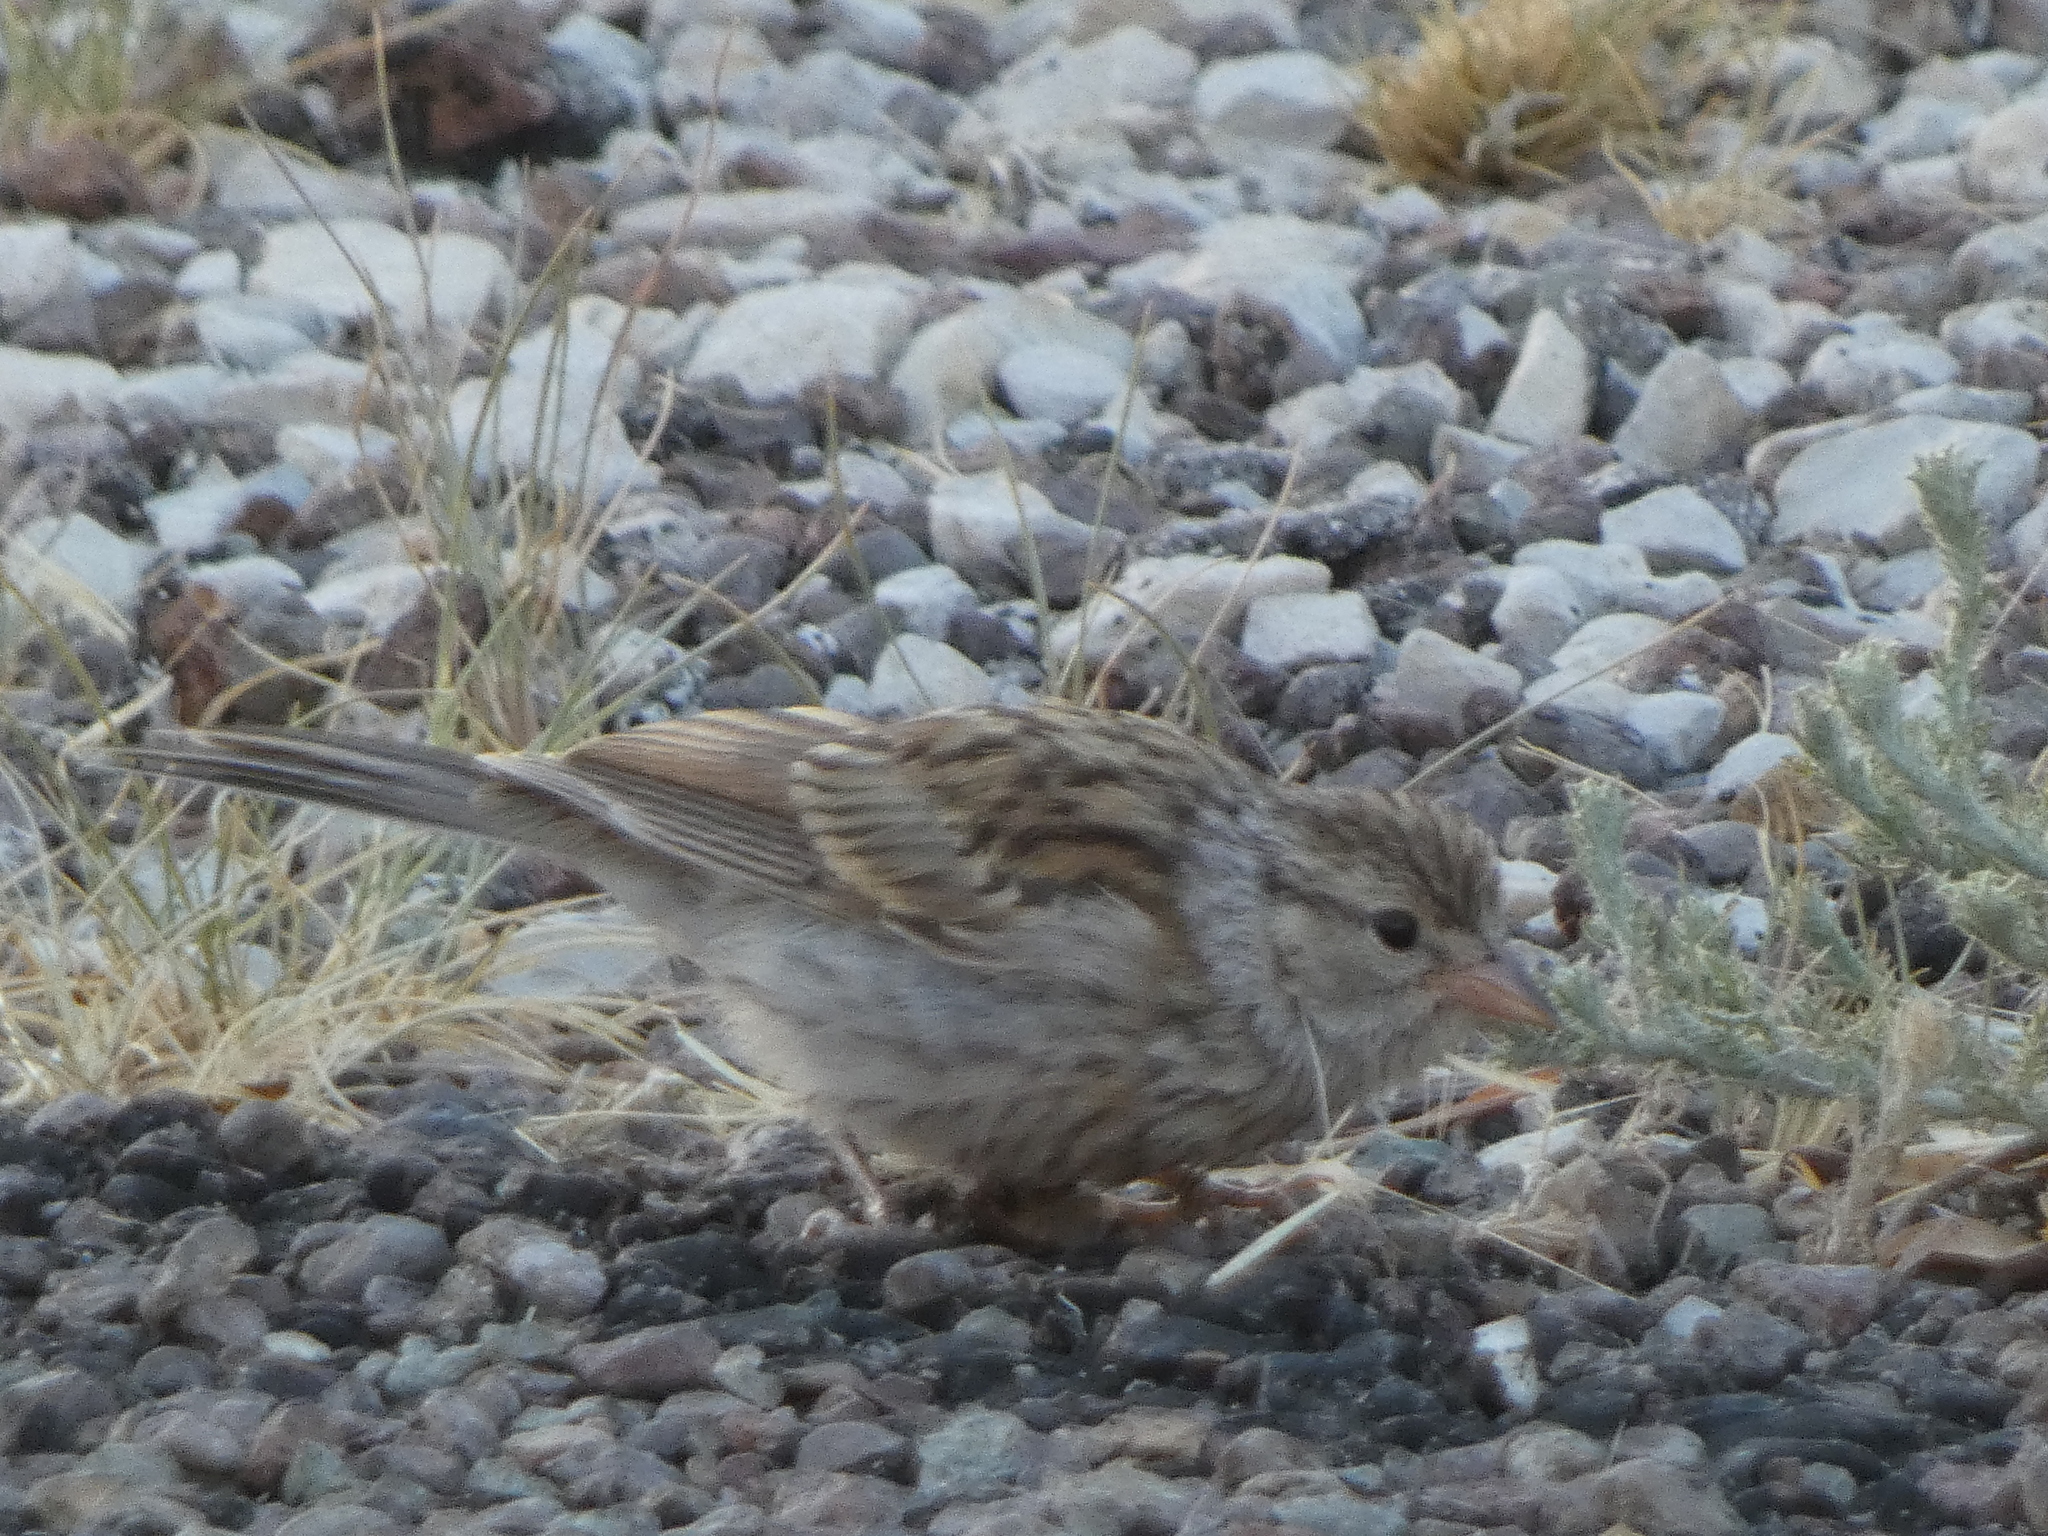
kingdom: Animalia
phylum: Chordata
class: Aves
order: Passeriformes
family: Passerellidae
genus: Spizella
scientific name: Spizella passerina
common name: Chipping sparrow
